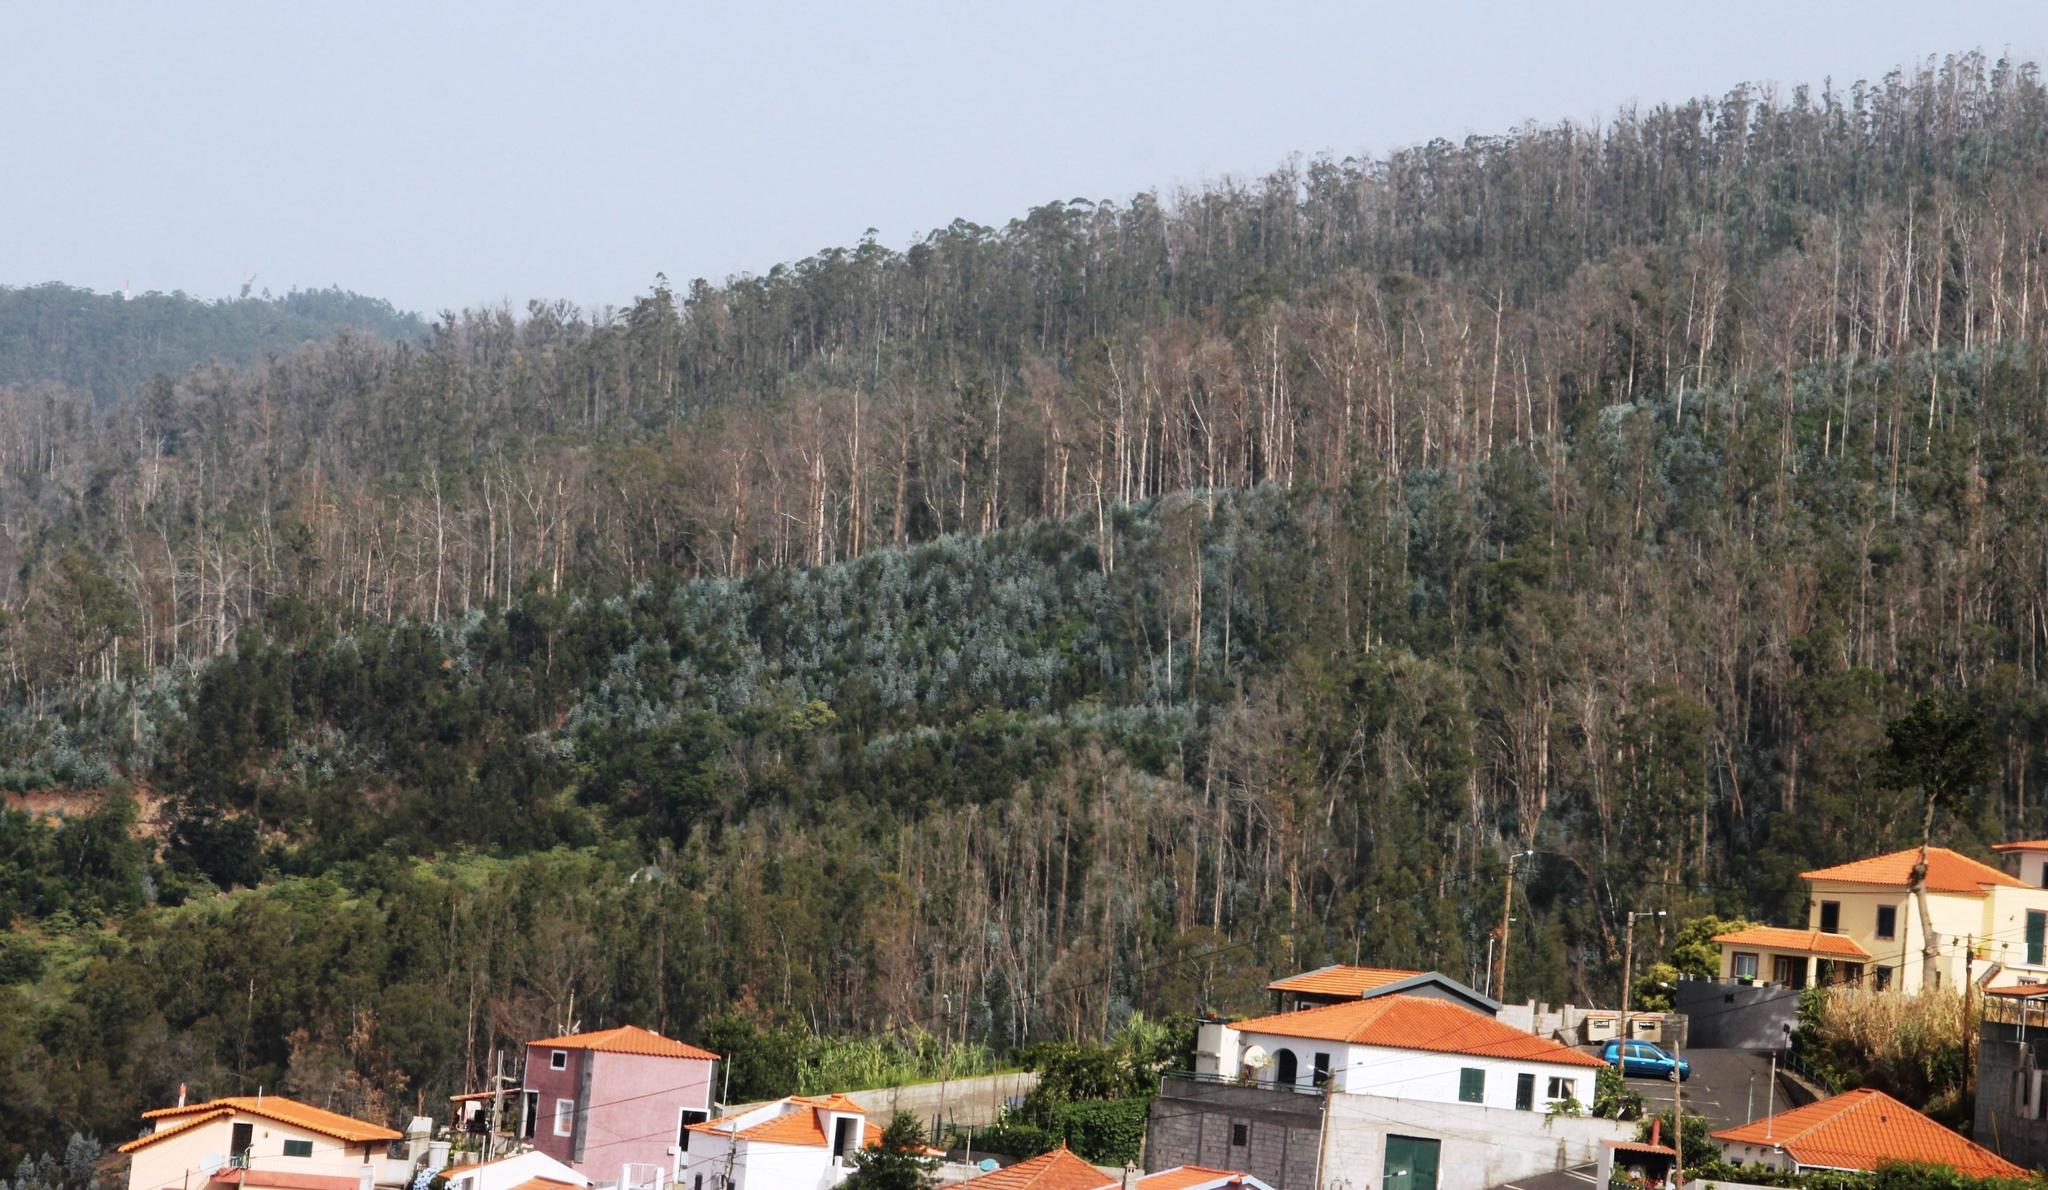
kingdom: Plantae
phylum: Tracheophyta
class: Magnoliopsida
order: Myrtales
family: Myrtaceae
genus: Eucalyptus
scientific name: Eucalyptus globulus
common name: Southern blue-gum
